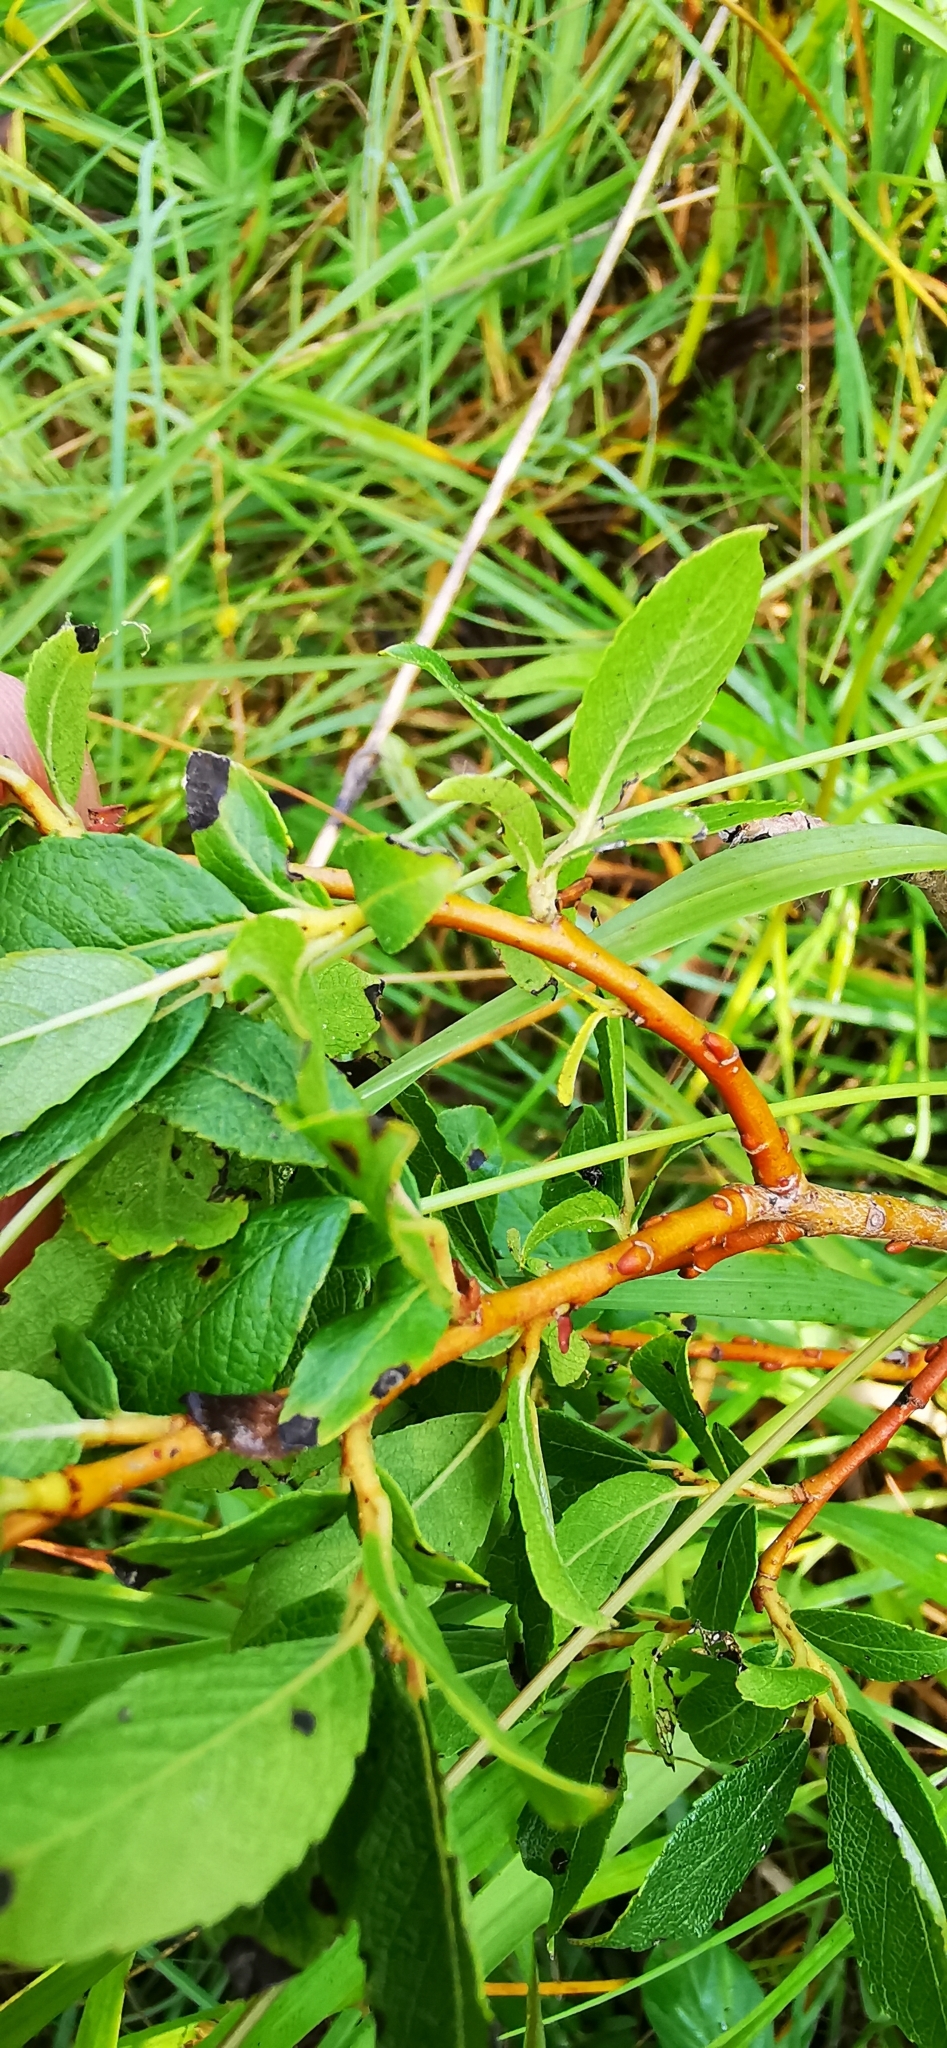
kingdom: Plantae
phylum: Tracheophyta
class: Magnoliopsida
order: Malpighiales
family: Salicaceae
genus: Salix
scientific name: Salix myrsinifolia
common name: Dark-leaved willow
